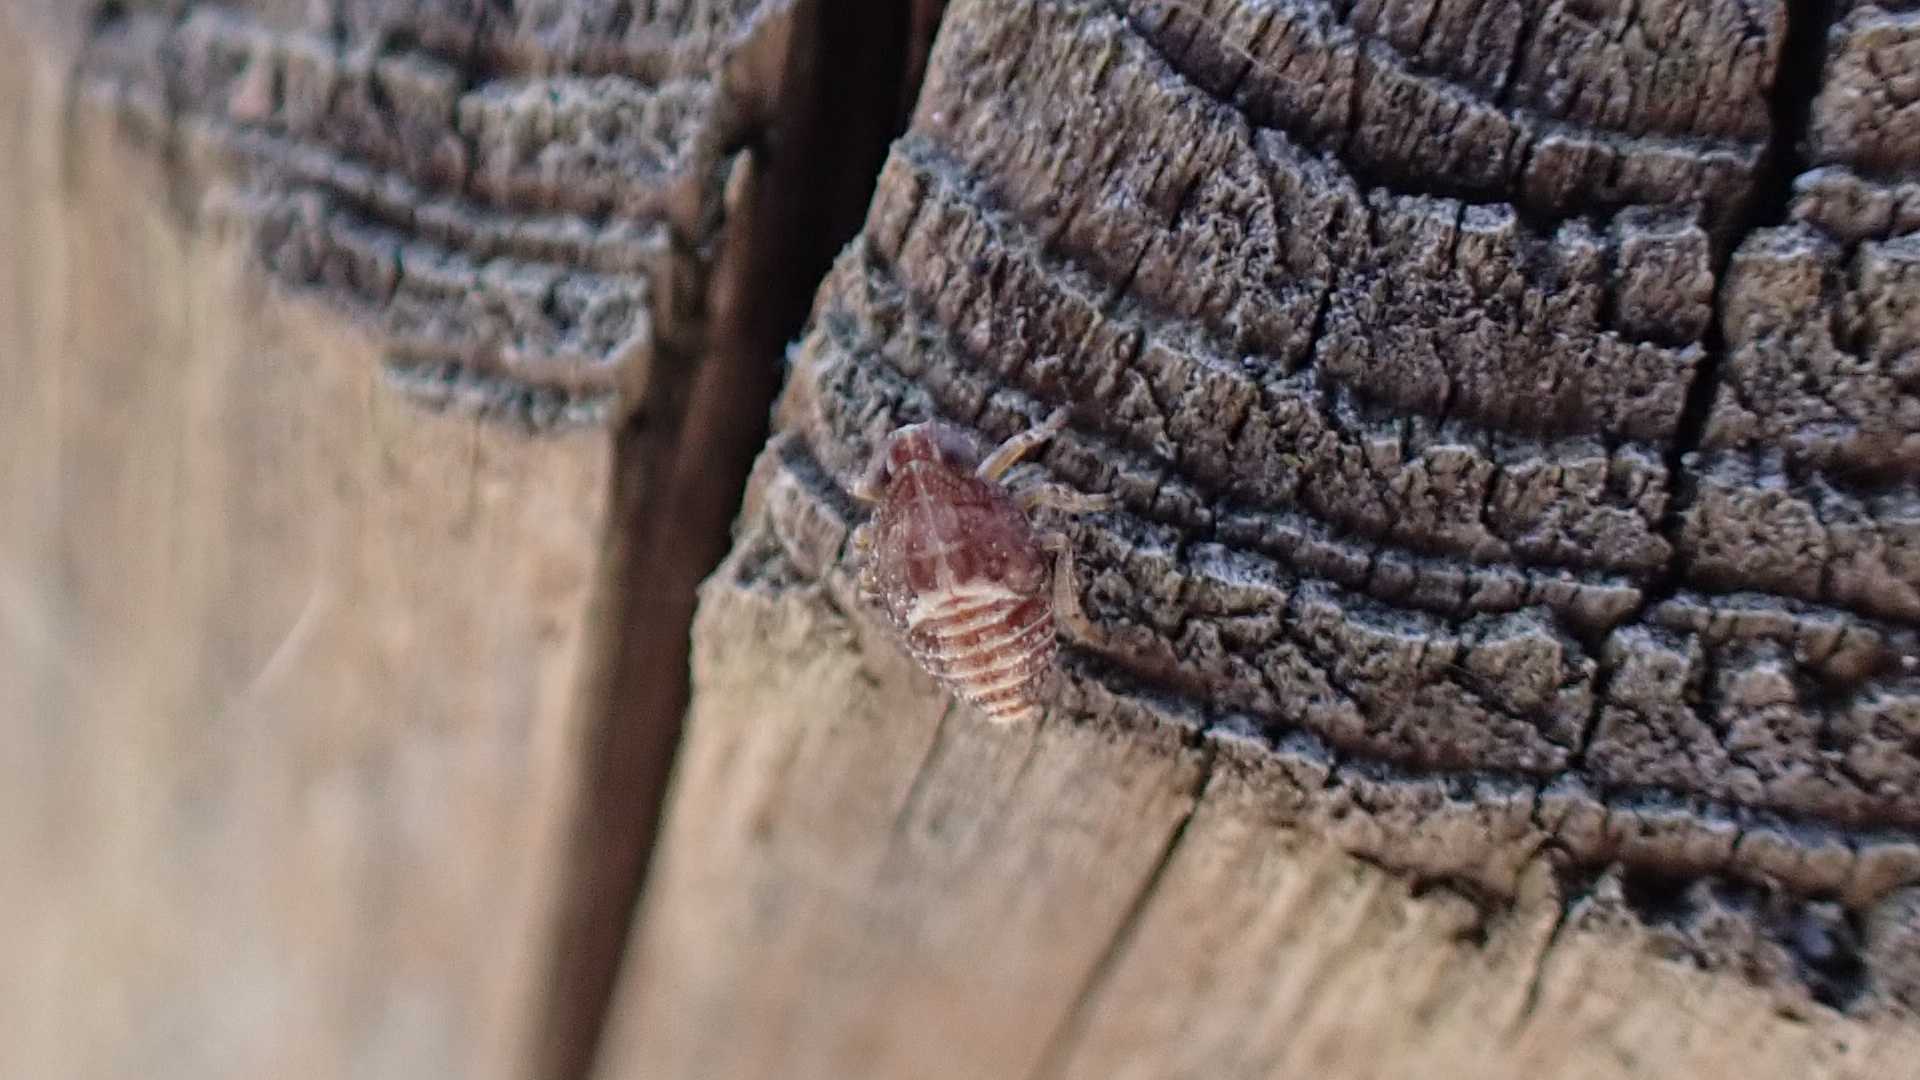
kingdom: Animalia
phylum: Arthropoda
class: Insecta
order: Hemiptera
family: Issidae
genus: Issus
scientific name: Issus
